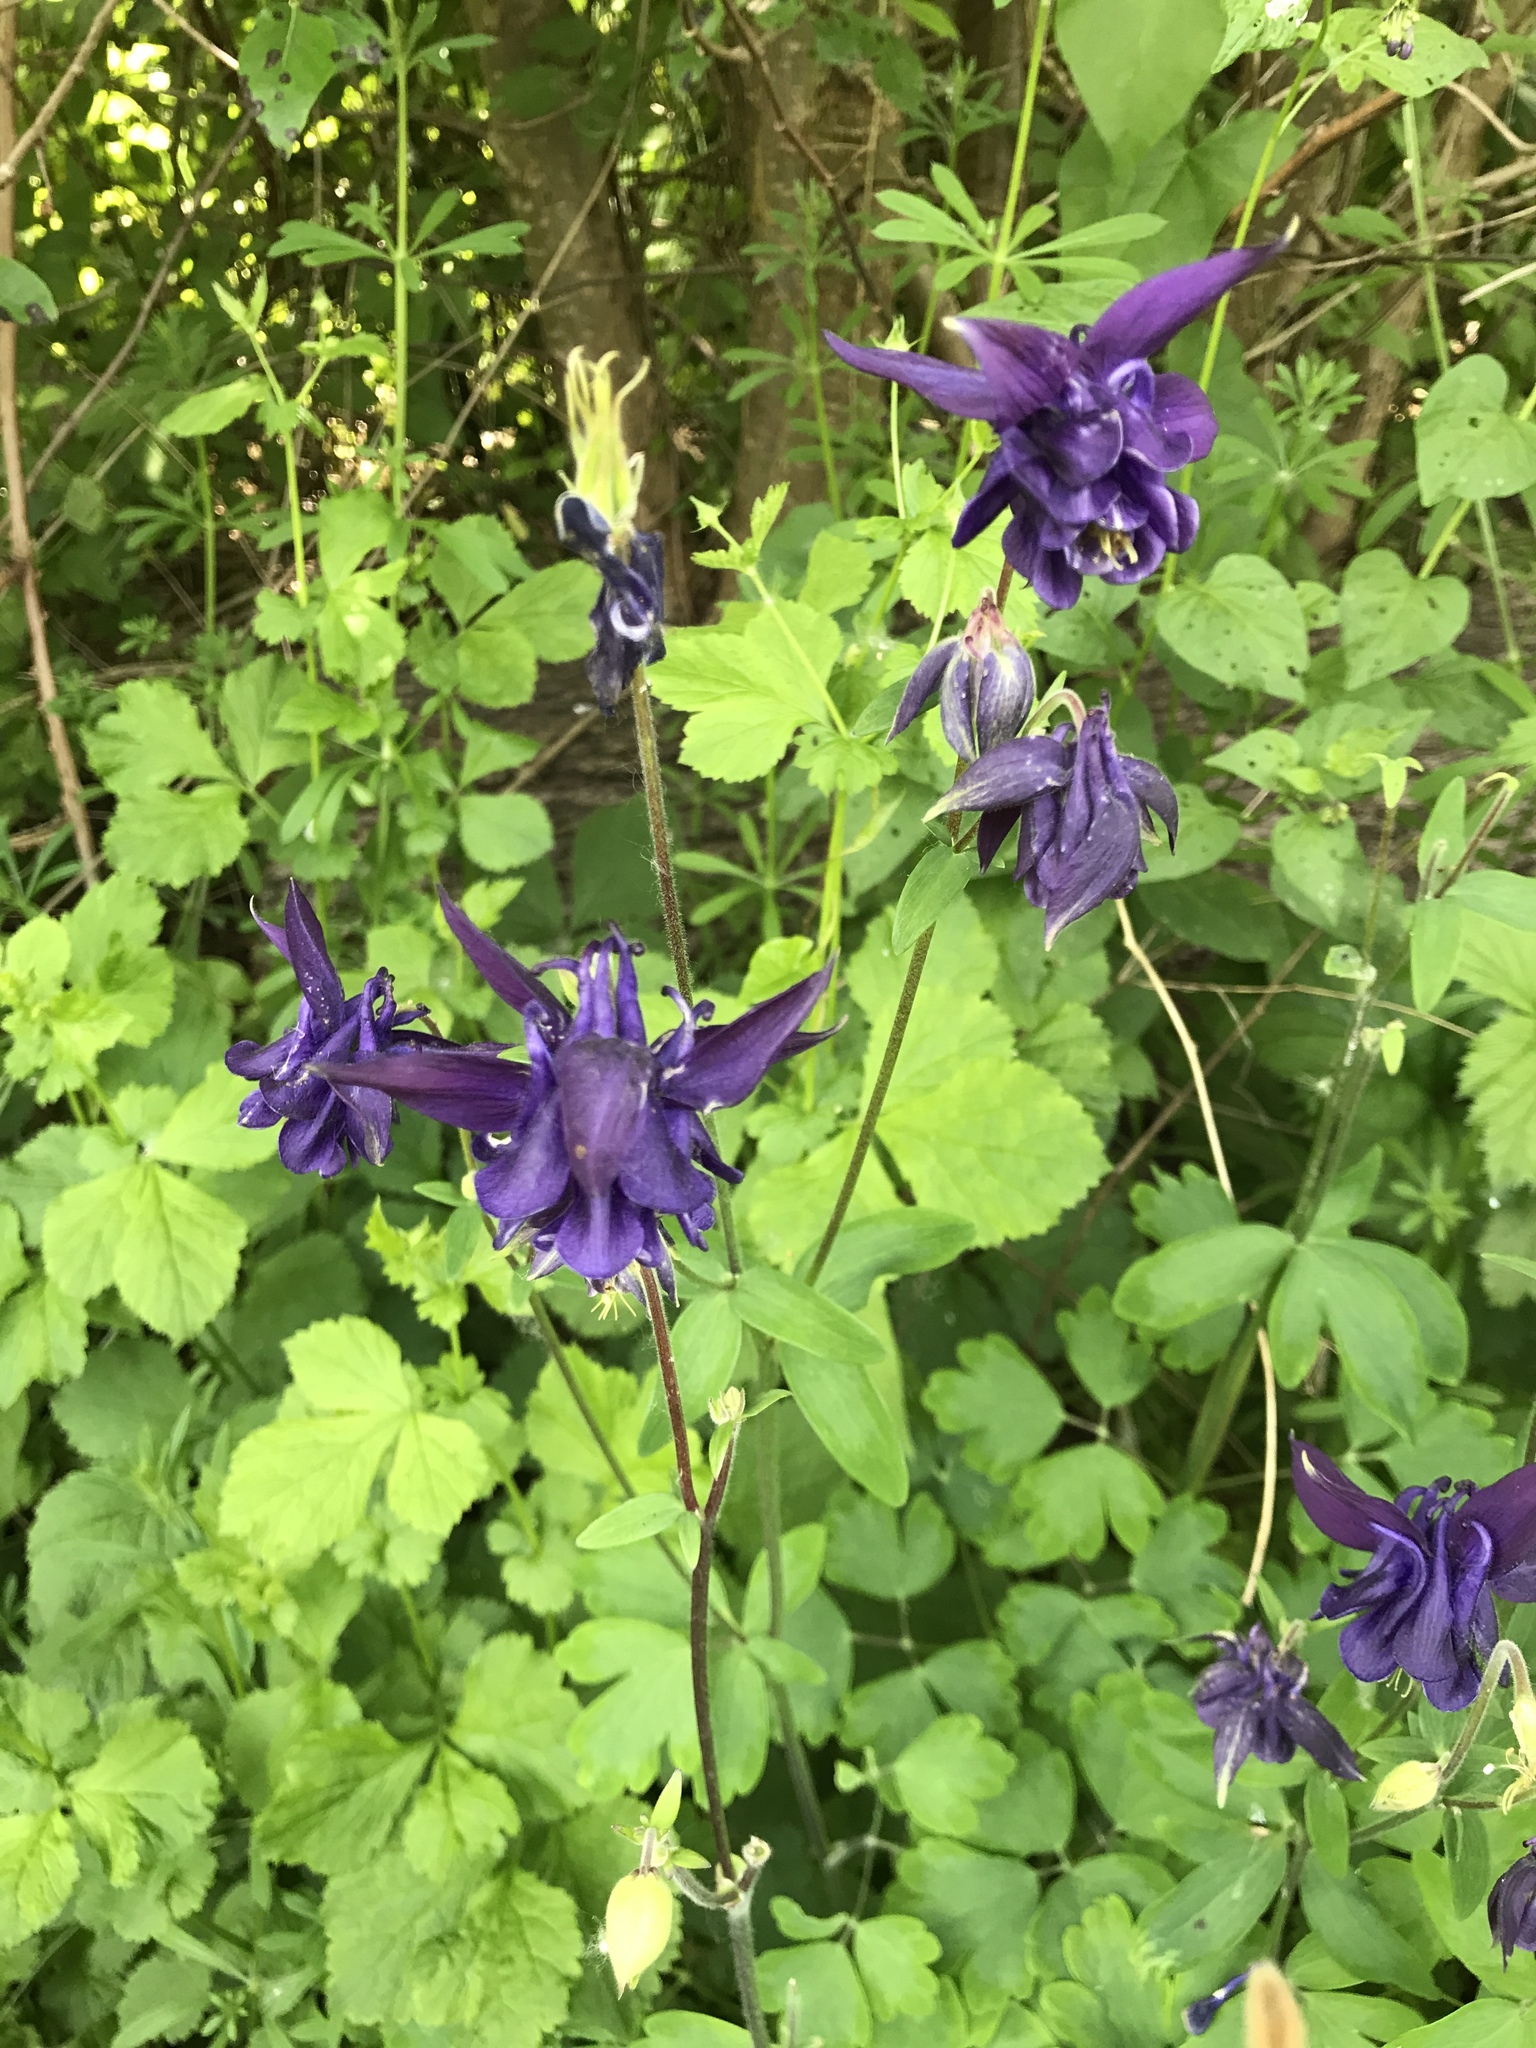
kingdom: Plantae
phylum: Tracheophyta
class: Magnoliopsida
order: Ranunculales
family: Ranunculaceae
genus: Aquilegia
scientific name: Aquilegia vulgaris
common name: Columbine
